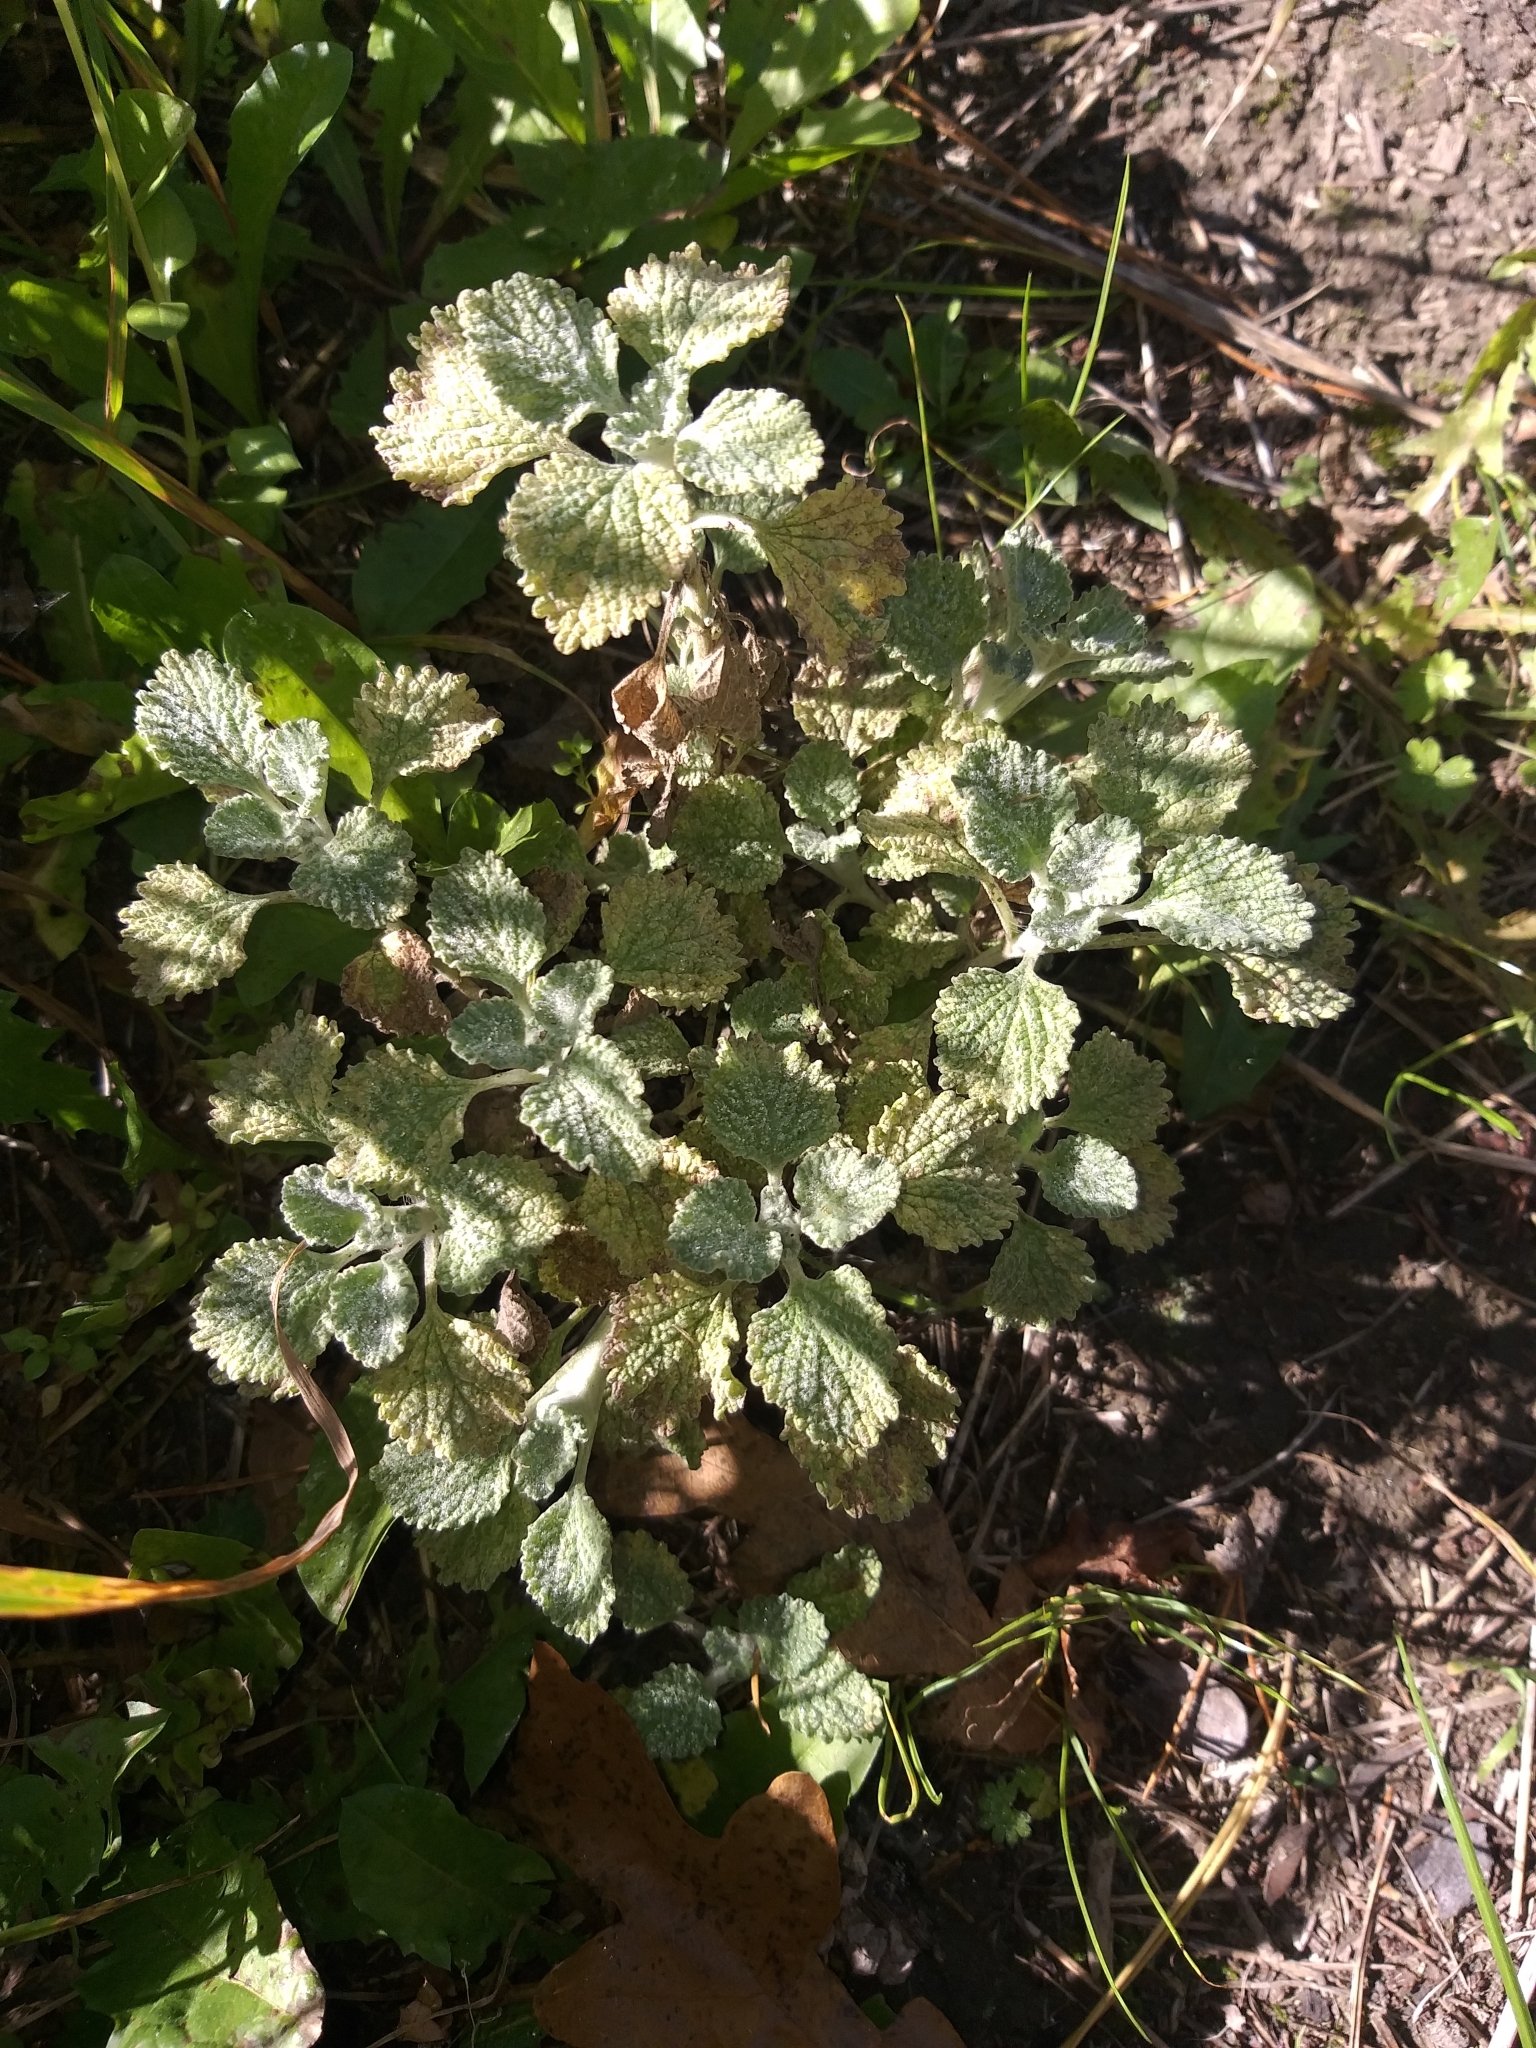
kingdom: Plantae
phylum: Tracheophyta
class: Magnoliopsida
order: Lamiales
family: Lamiaceae
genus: Marrubium
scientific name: Marrubium vulgare
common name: Horehound
